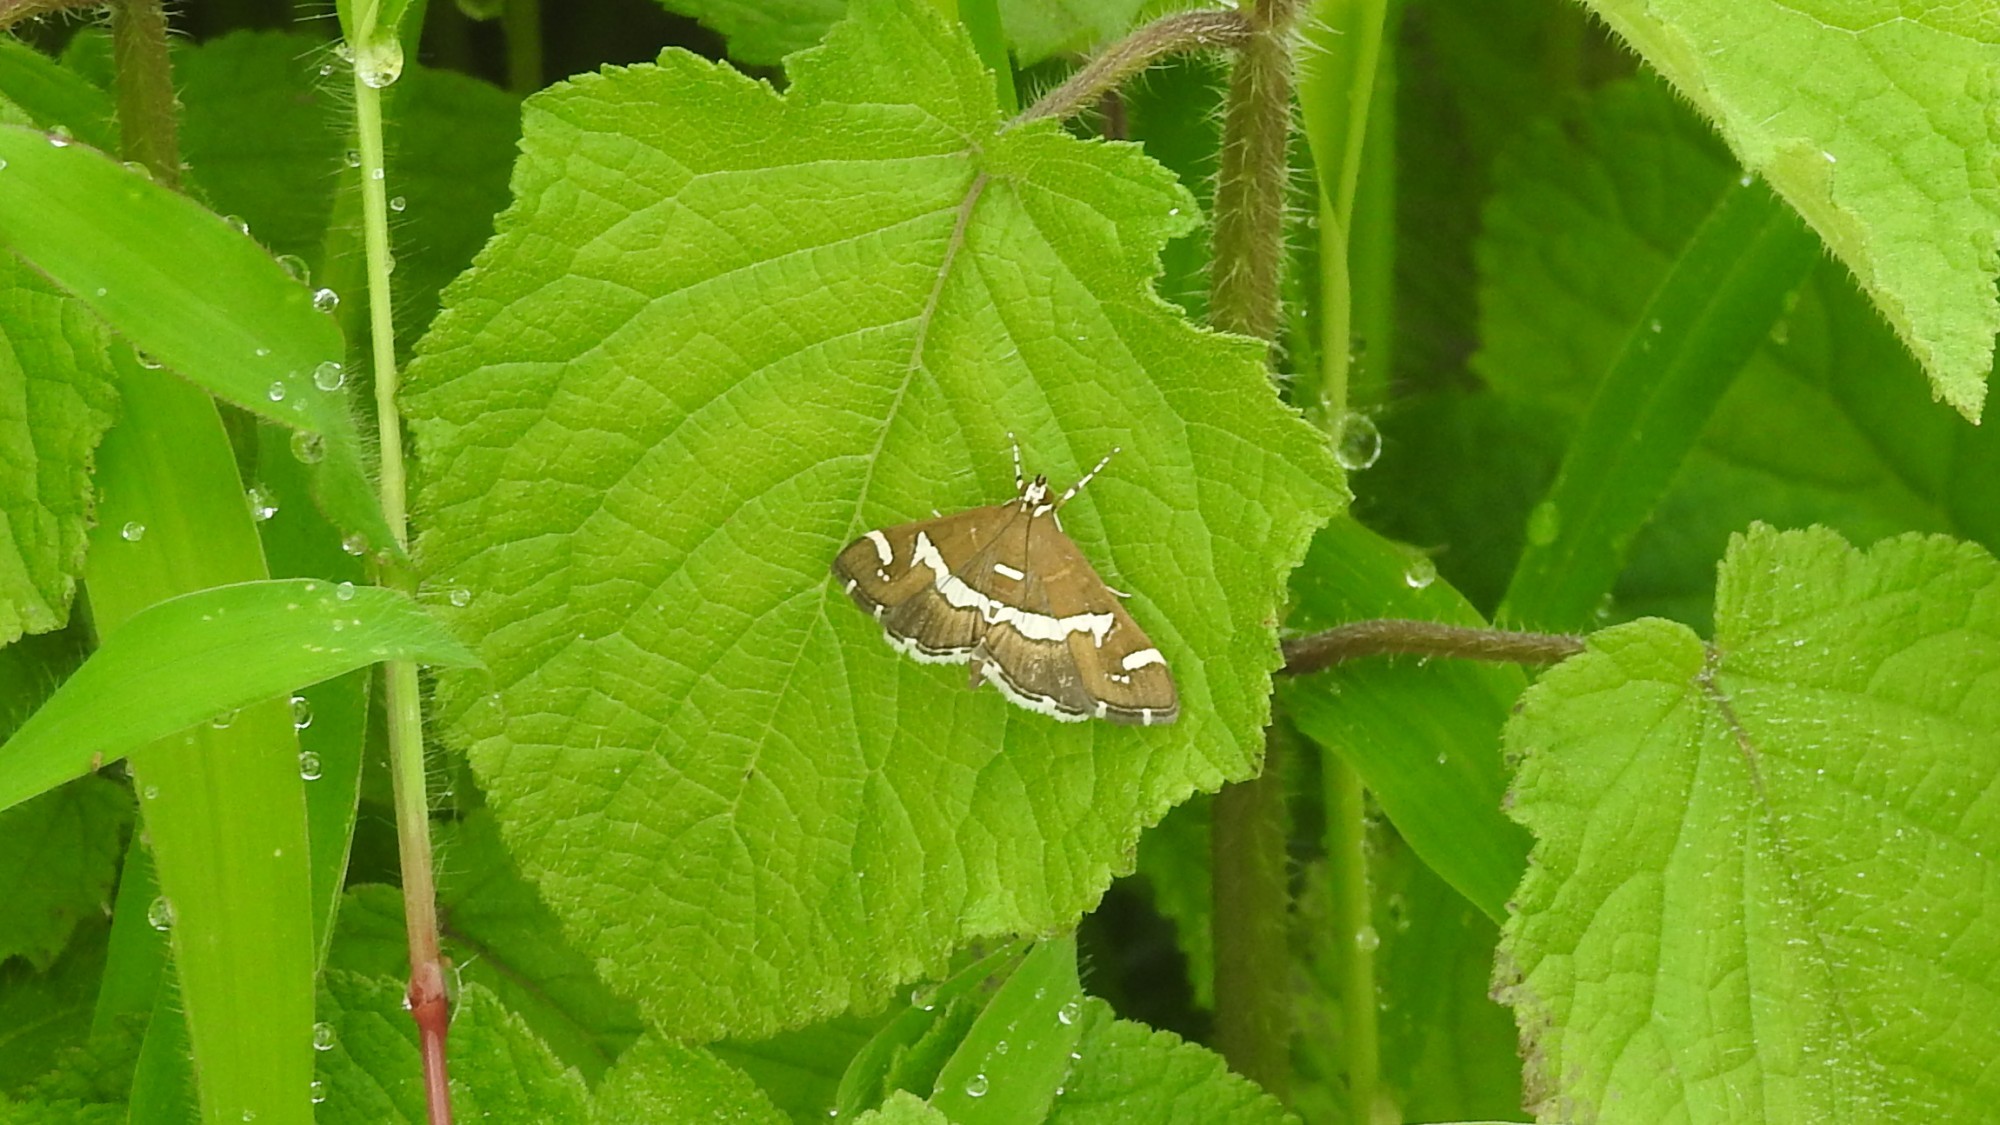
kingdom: Animalia
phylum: Arthropoda
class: Insecta
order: Lepidoptera
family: Crambidae
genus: Spoladea
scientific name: Spoladea recurvalis
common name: Beet webworm moth
